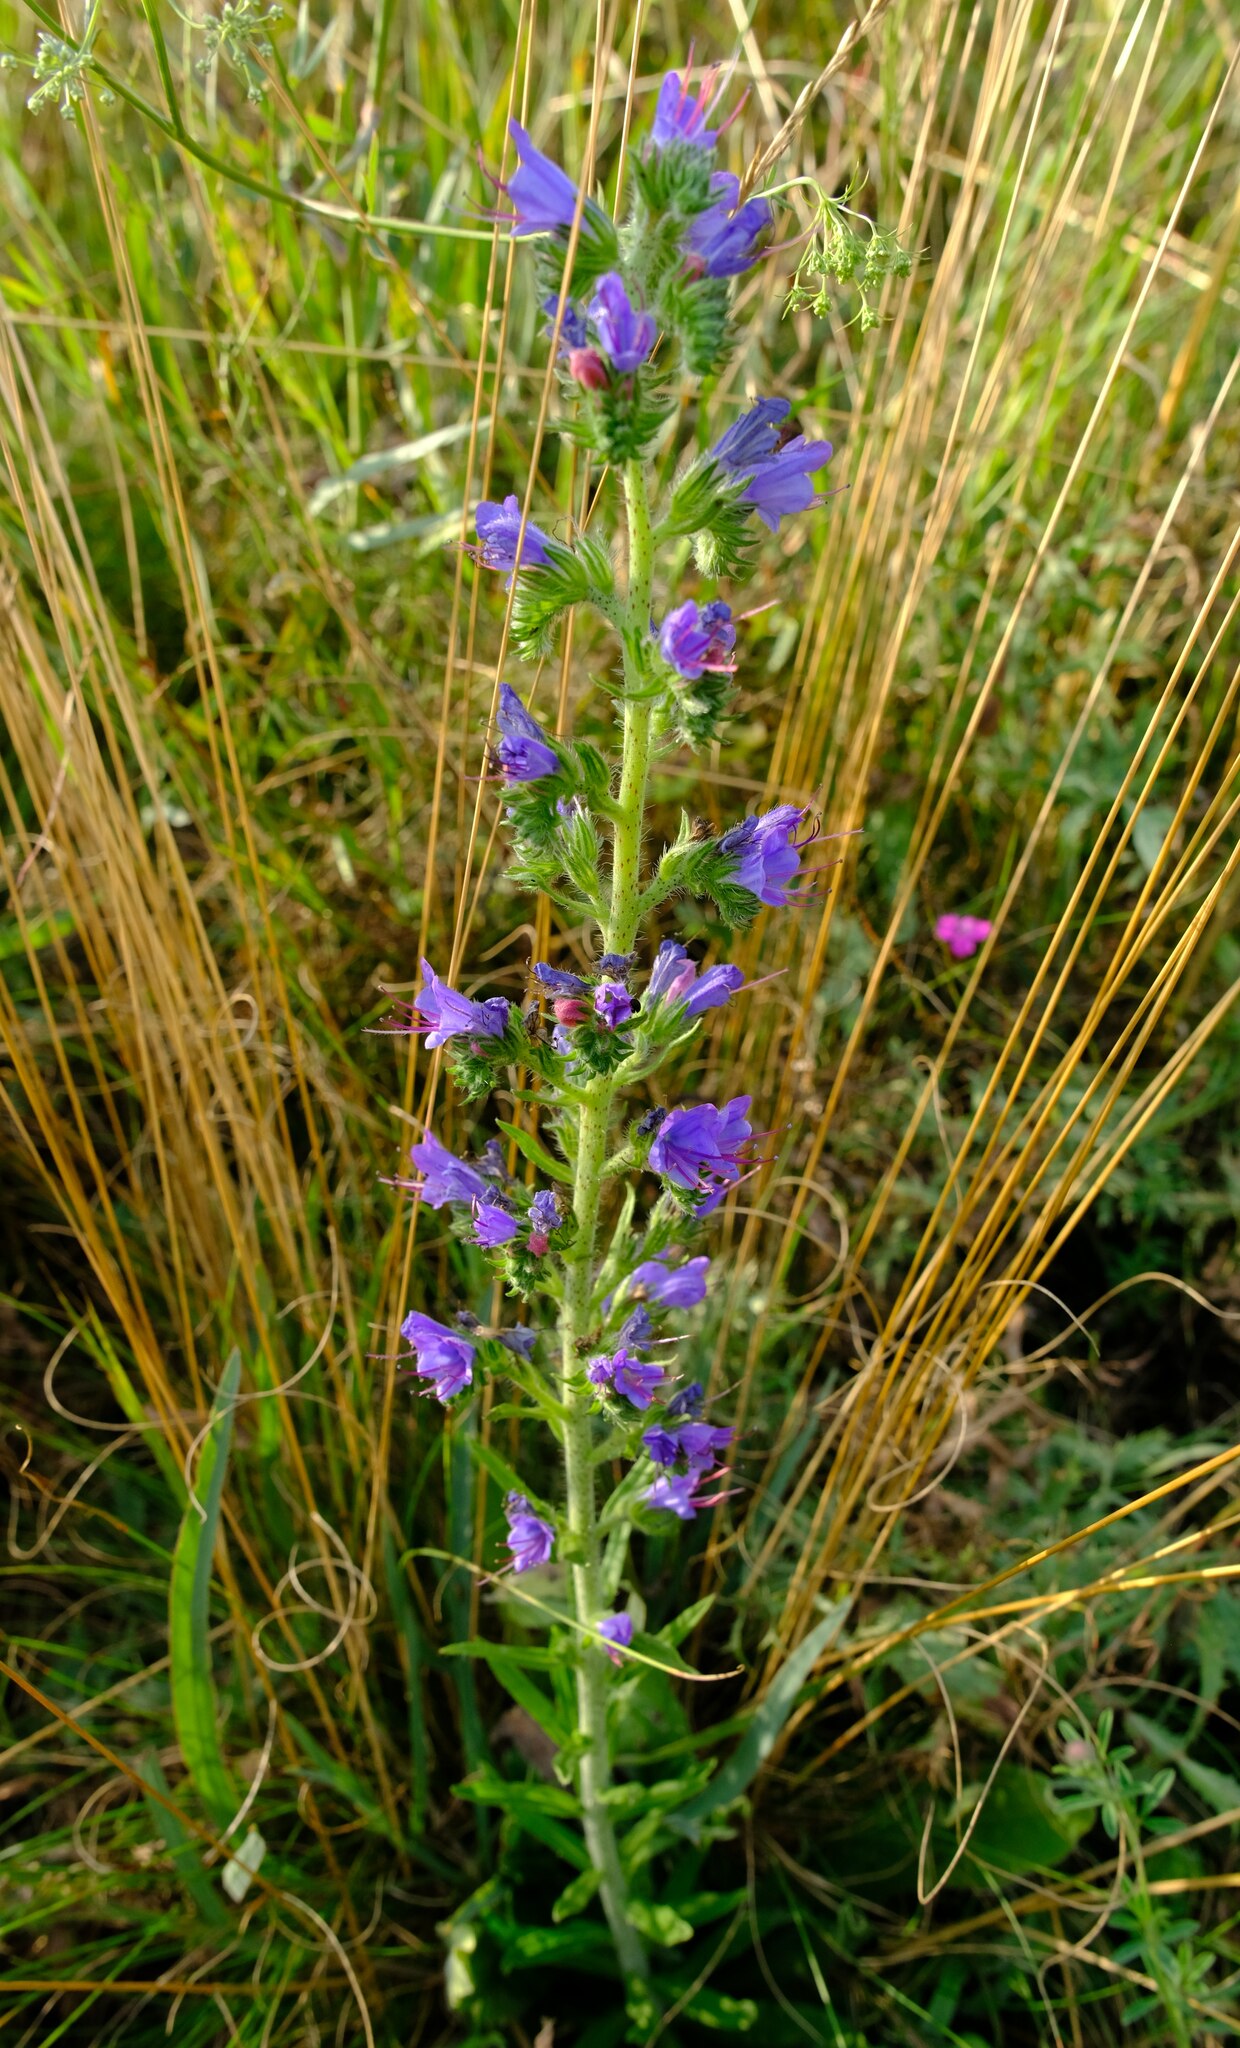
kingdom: Plantae
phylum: Tracheophyta
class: Magnoliopsida
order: Boraginales
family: Boraginaceae
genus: Echium
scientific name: Echium vulgare
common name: Common viper's bugloss
